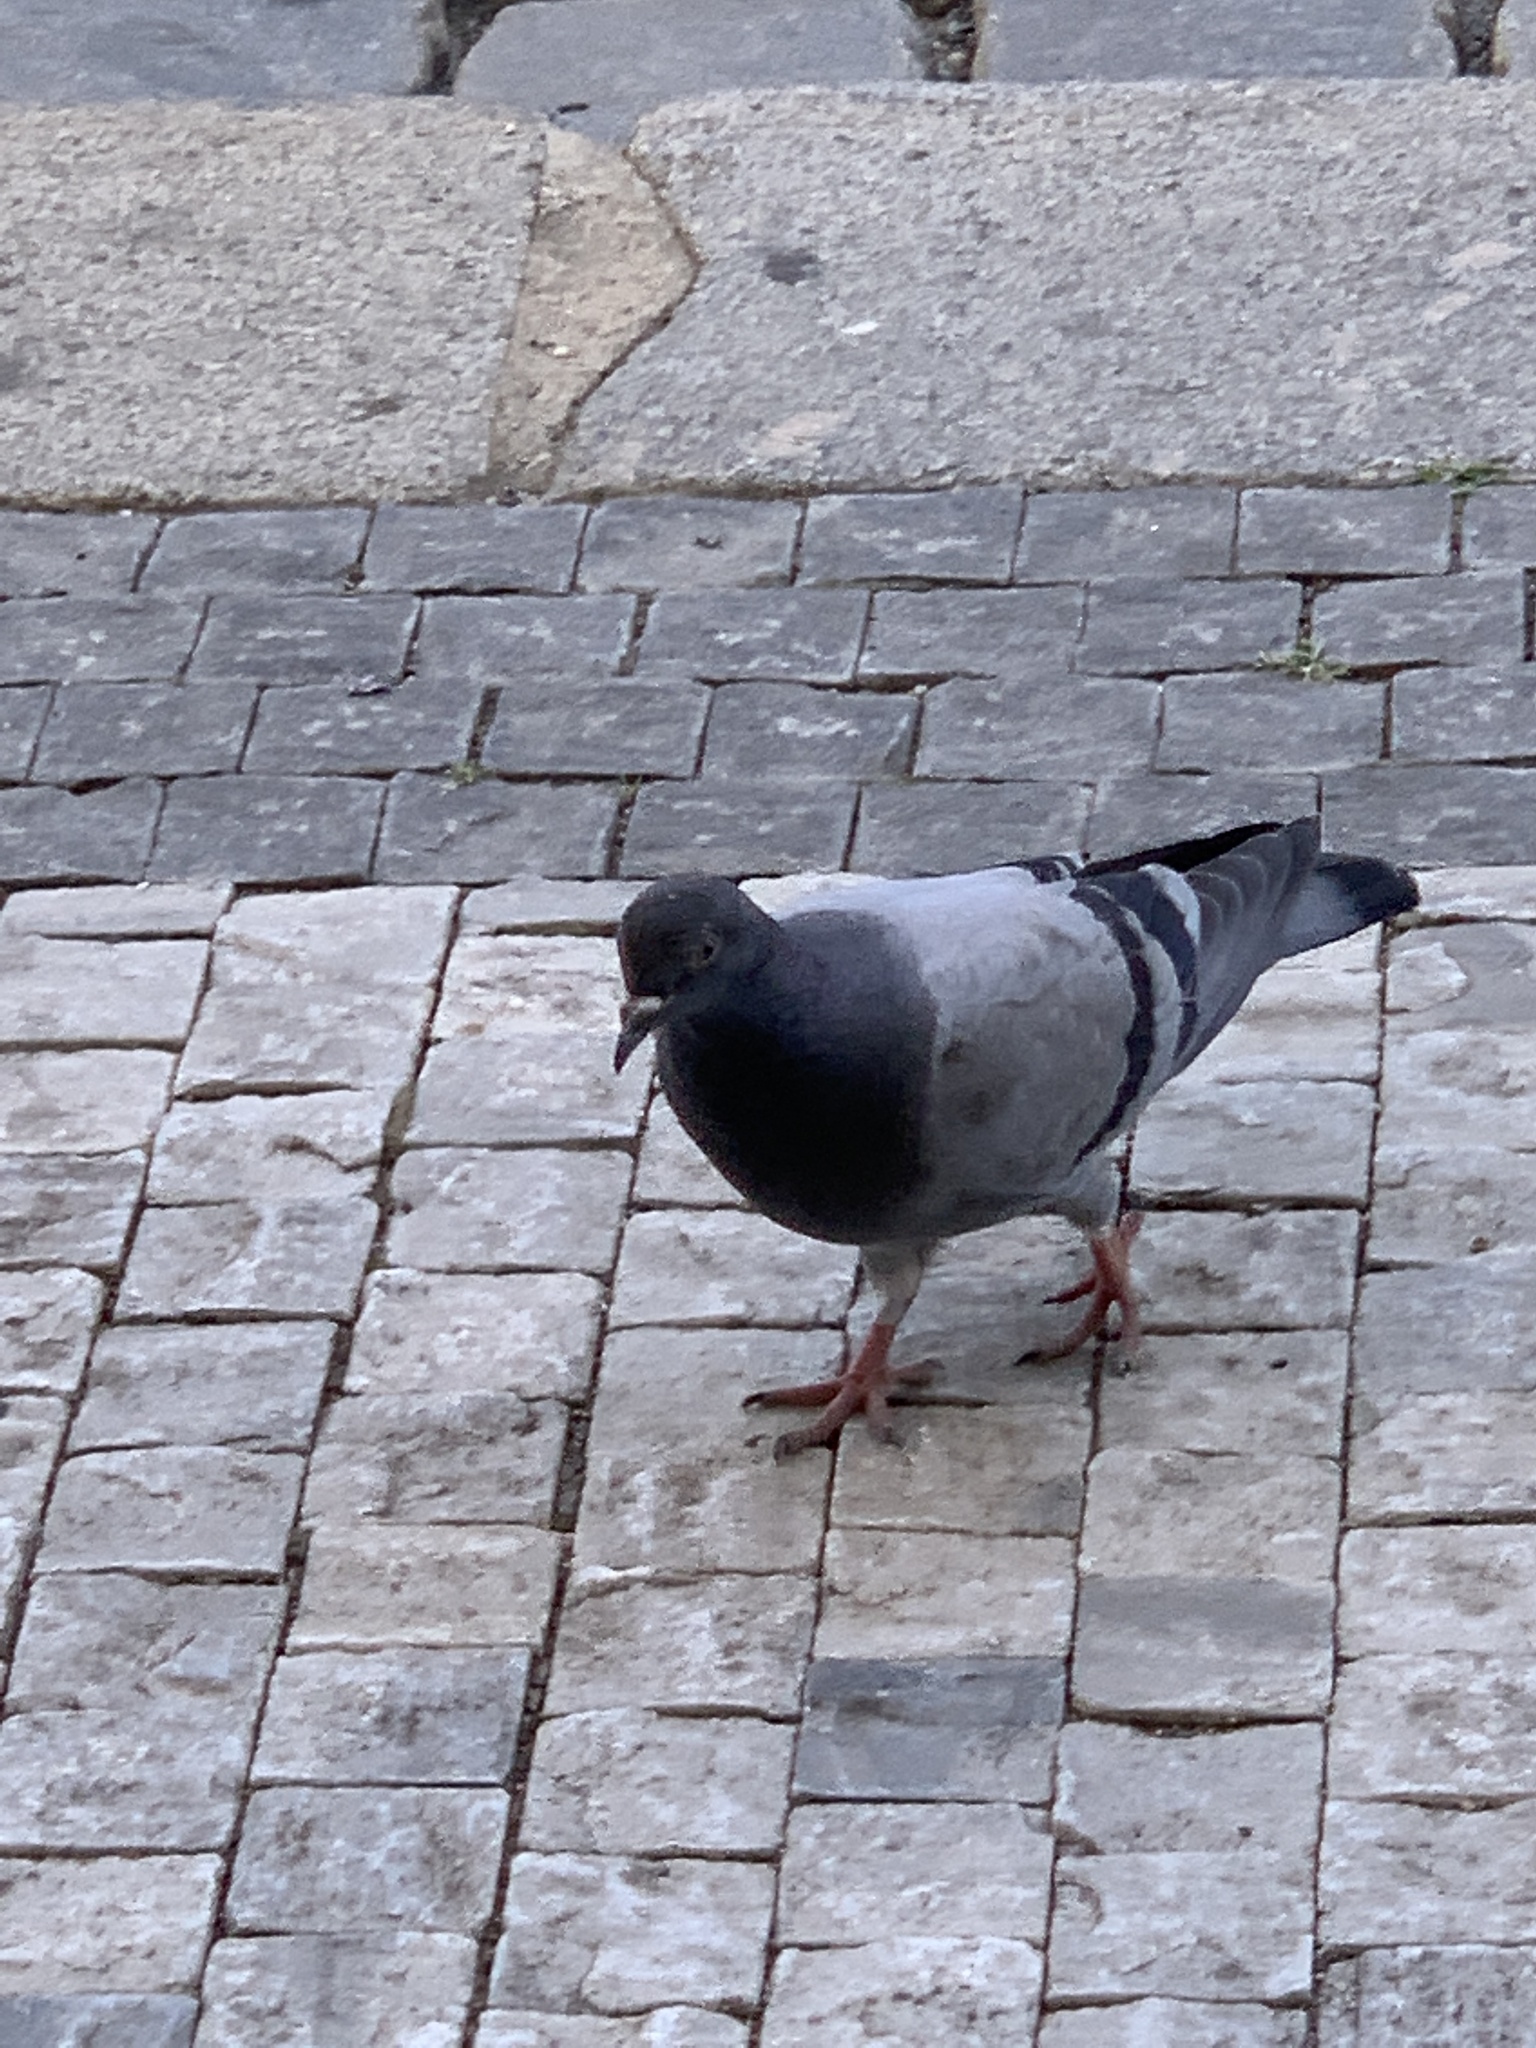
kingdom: Animalia
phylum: Chordata
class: Aves
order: Columbiformes
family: Columbidae
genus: Columba
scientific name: Columba livia
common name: Rock pigeon
